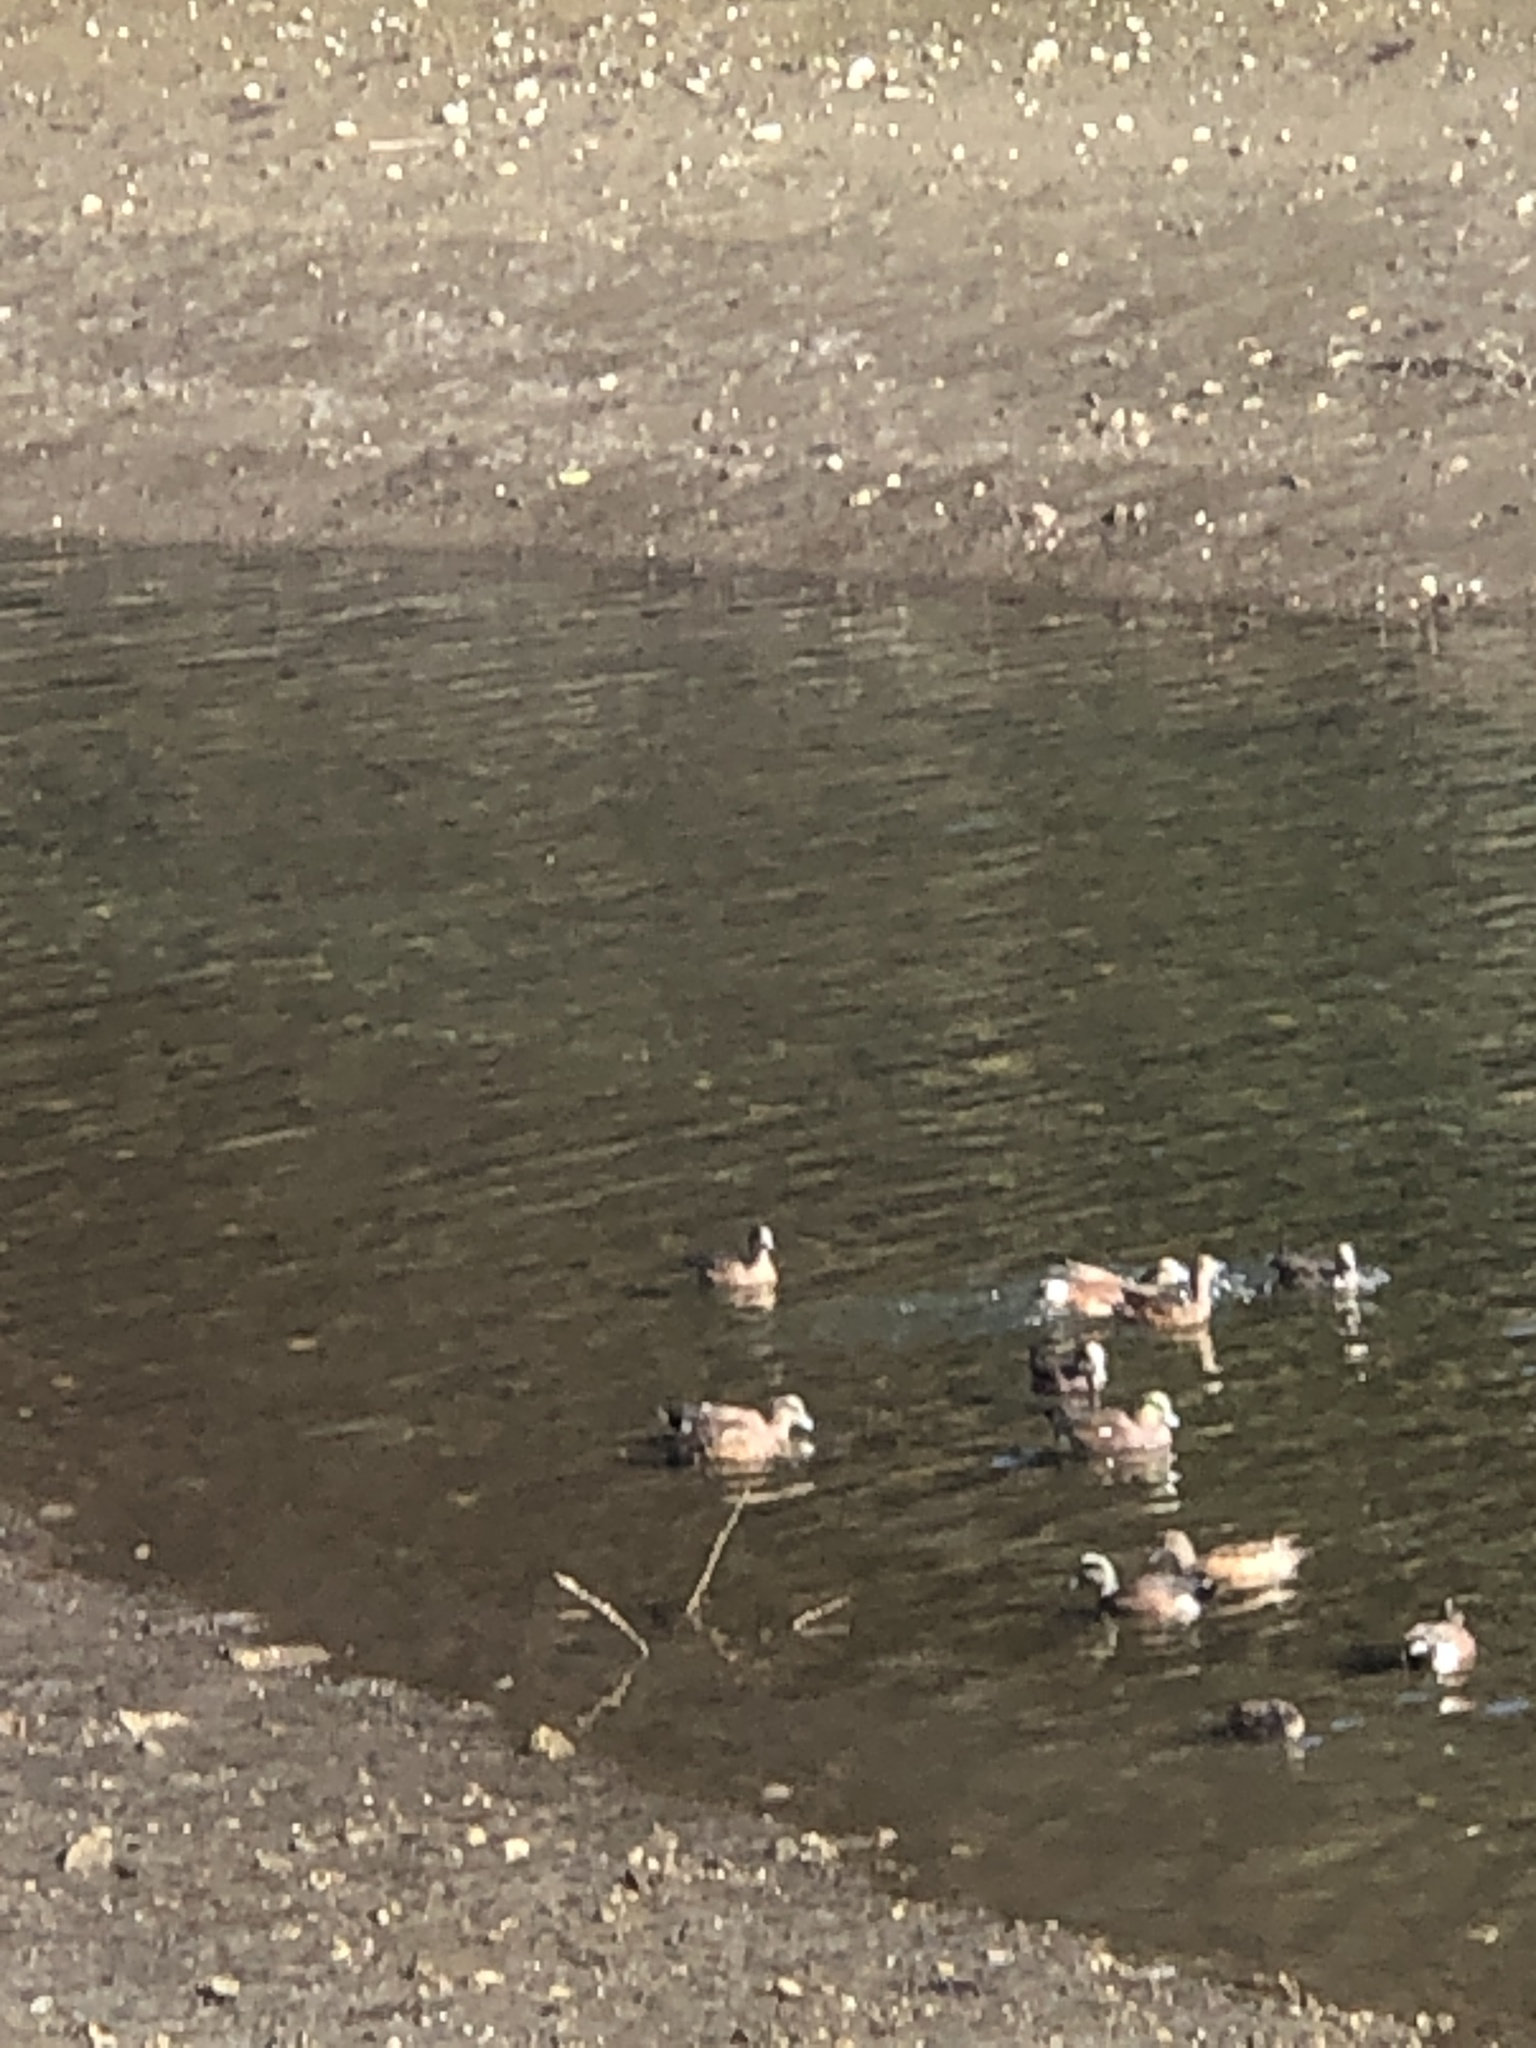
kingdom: Animalia
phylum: Chordata
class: Aves
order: Anseriformes
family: Anatidae
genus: Mareca
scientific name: Mareca americana
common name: American wigeon
